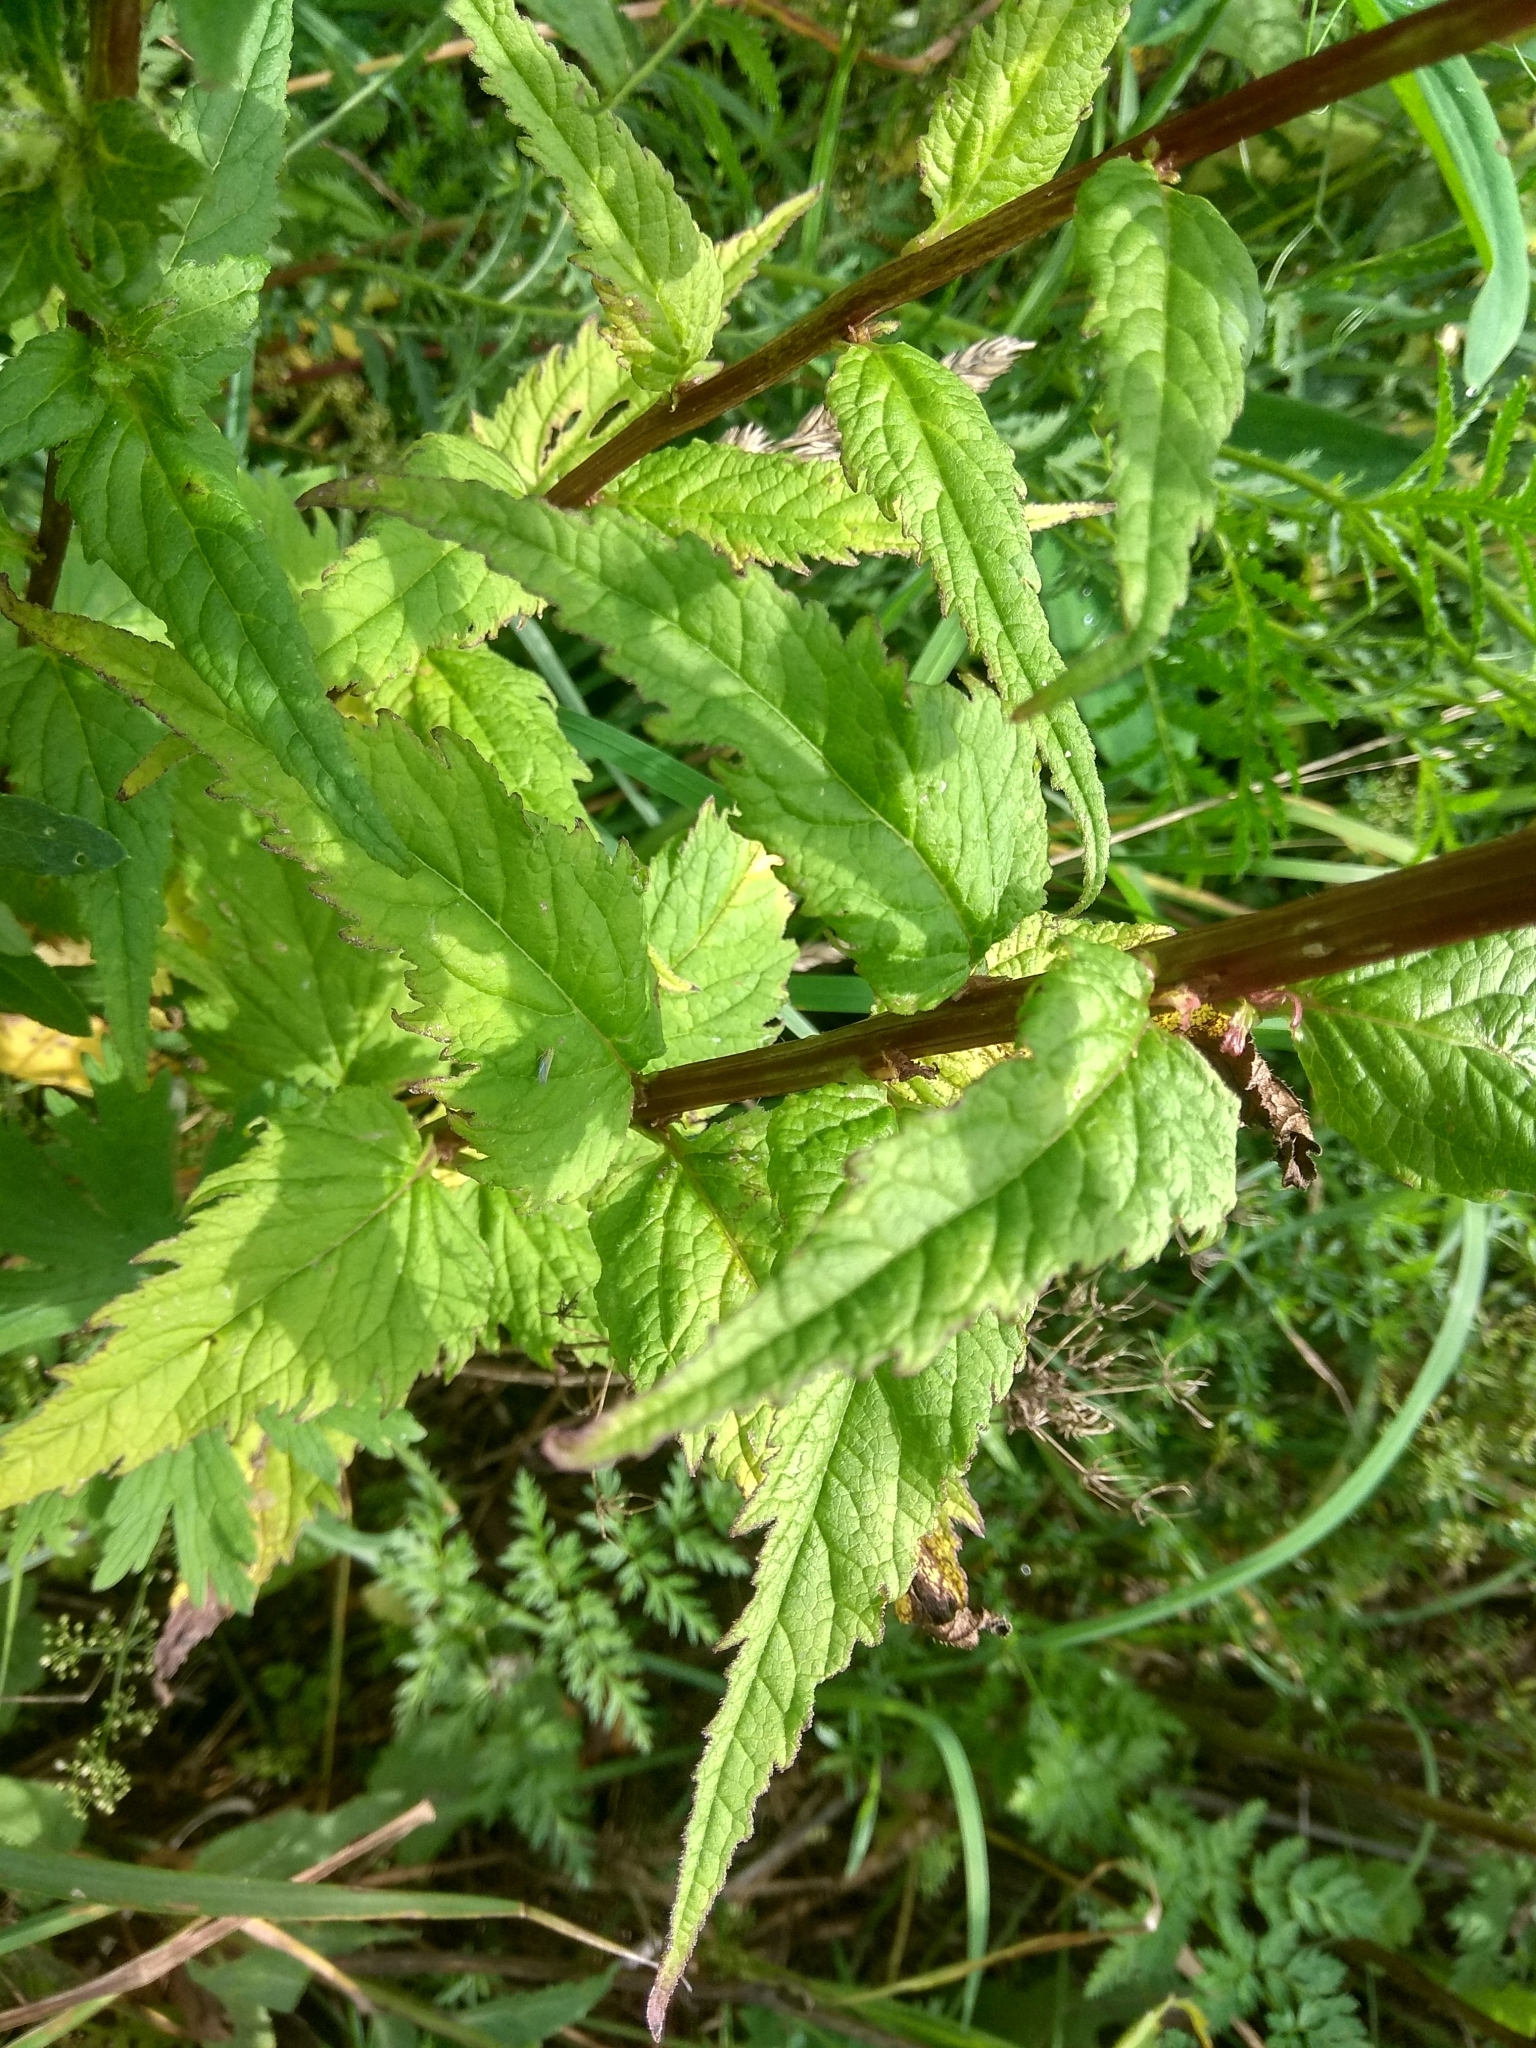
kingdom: Plantae
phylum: Tracheophyta
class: Magnoliopsida
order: Asterales
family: Campanulaceae
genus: Campanula
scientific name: Campanula trachelium
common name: Nettle-leaved bellflower
